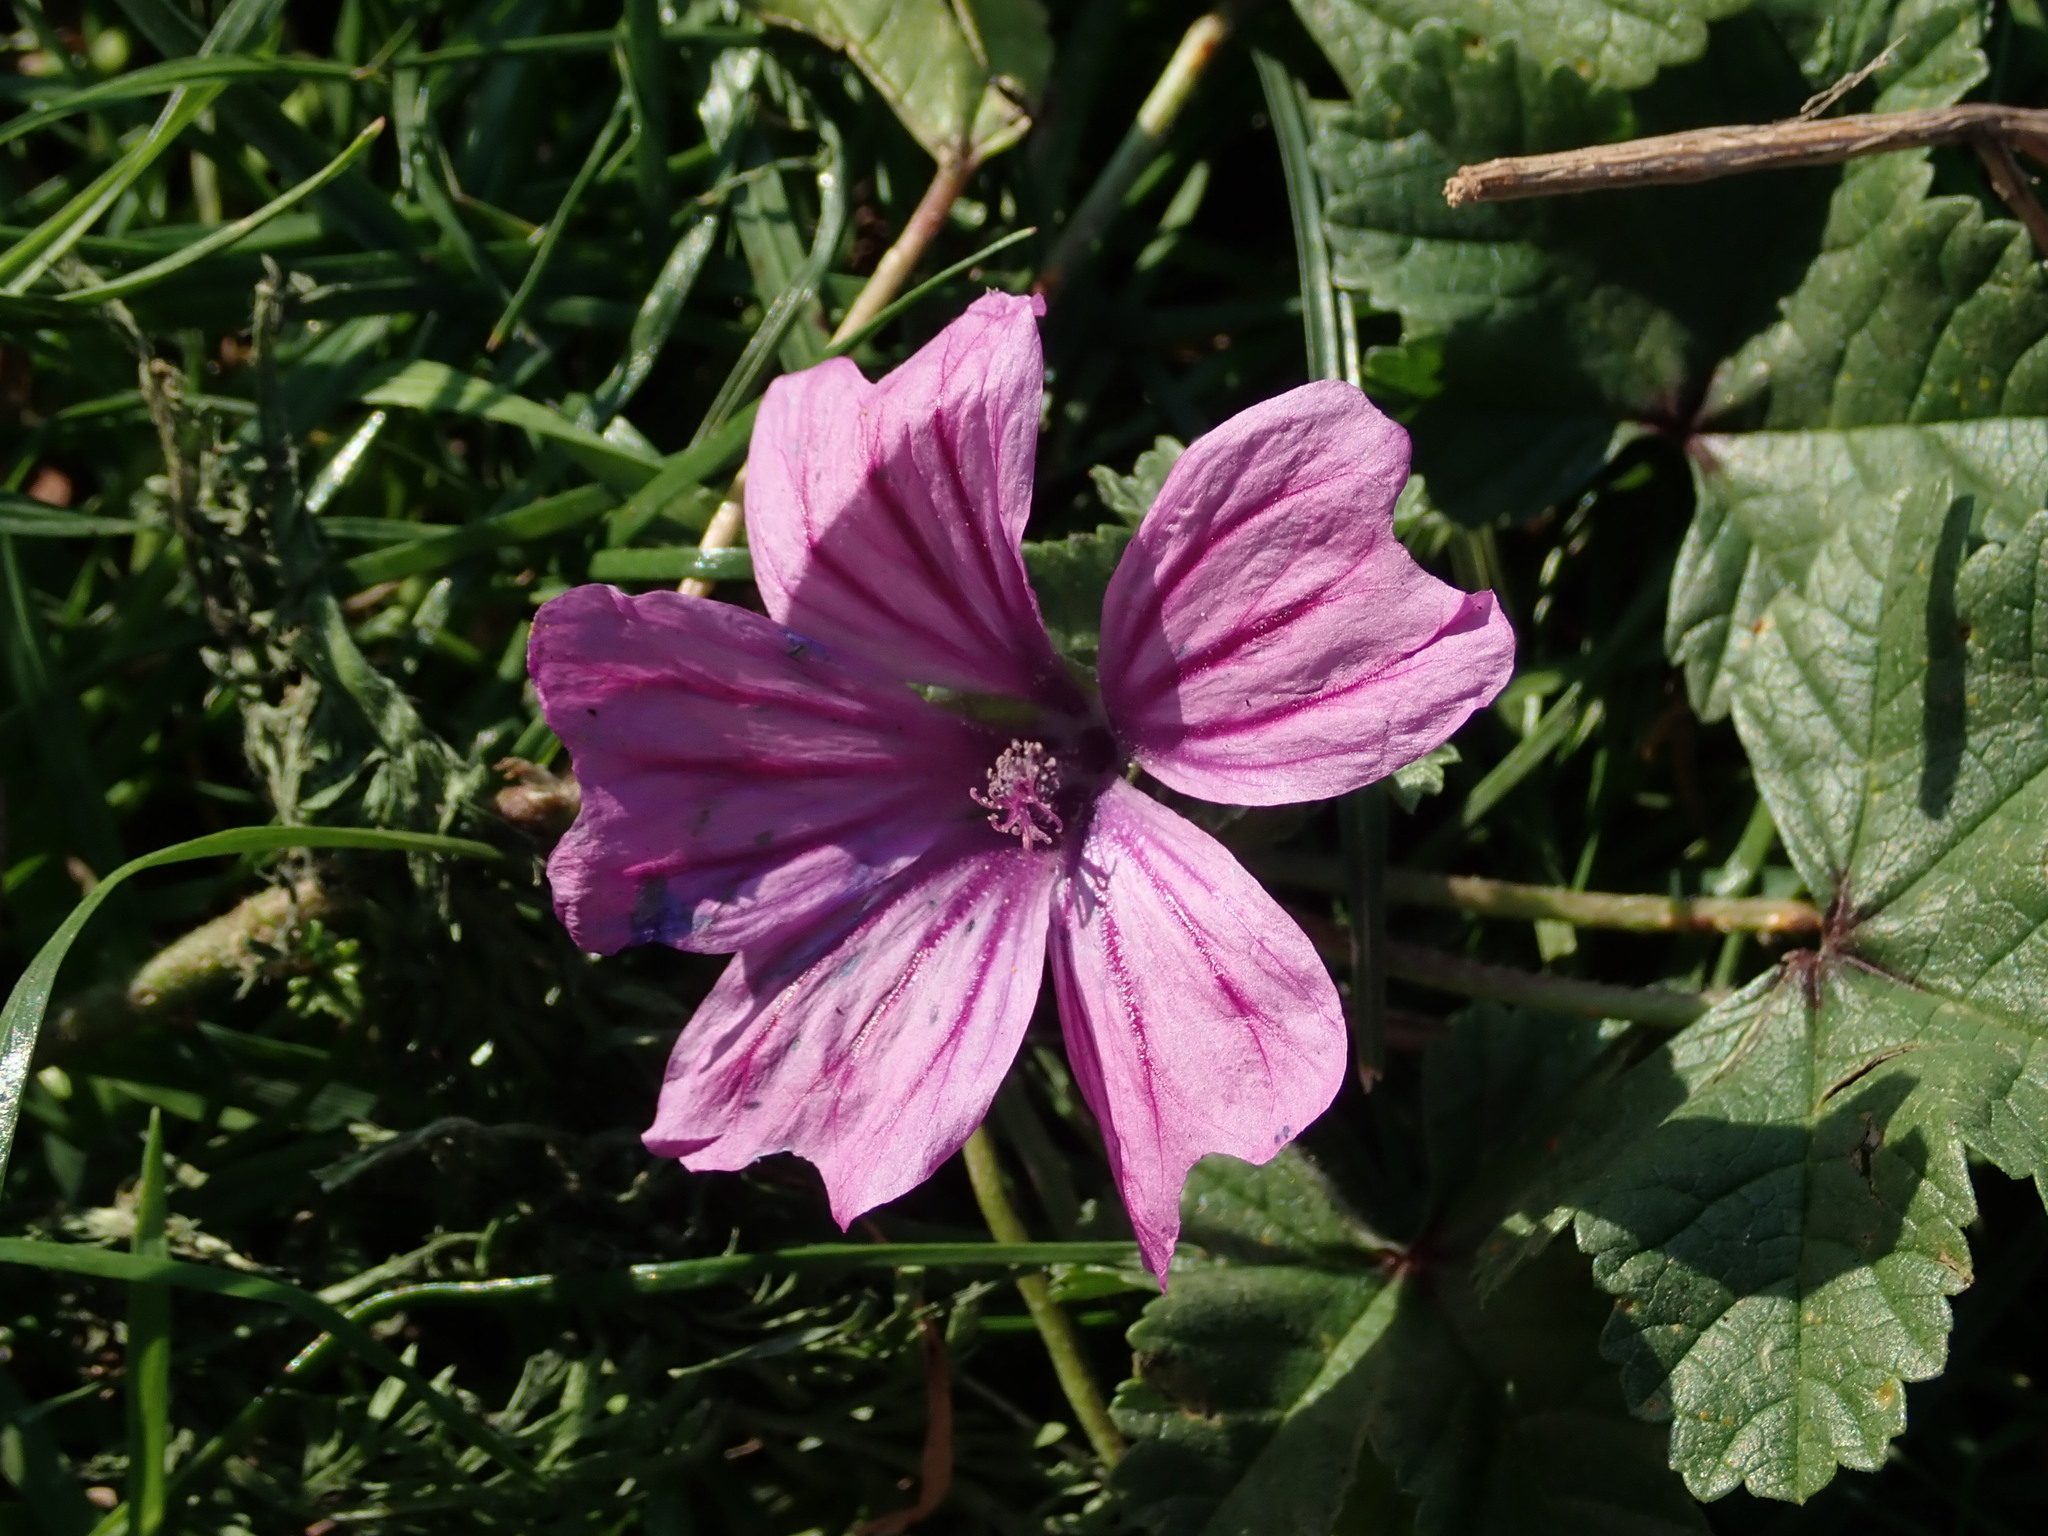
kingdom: Plantae
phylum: Tracheophyta
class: Magnoliopsida
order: Malvales
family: Malvaceae
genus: Malva
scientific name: Malva sylvestris
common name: Common mallow
